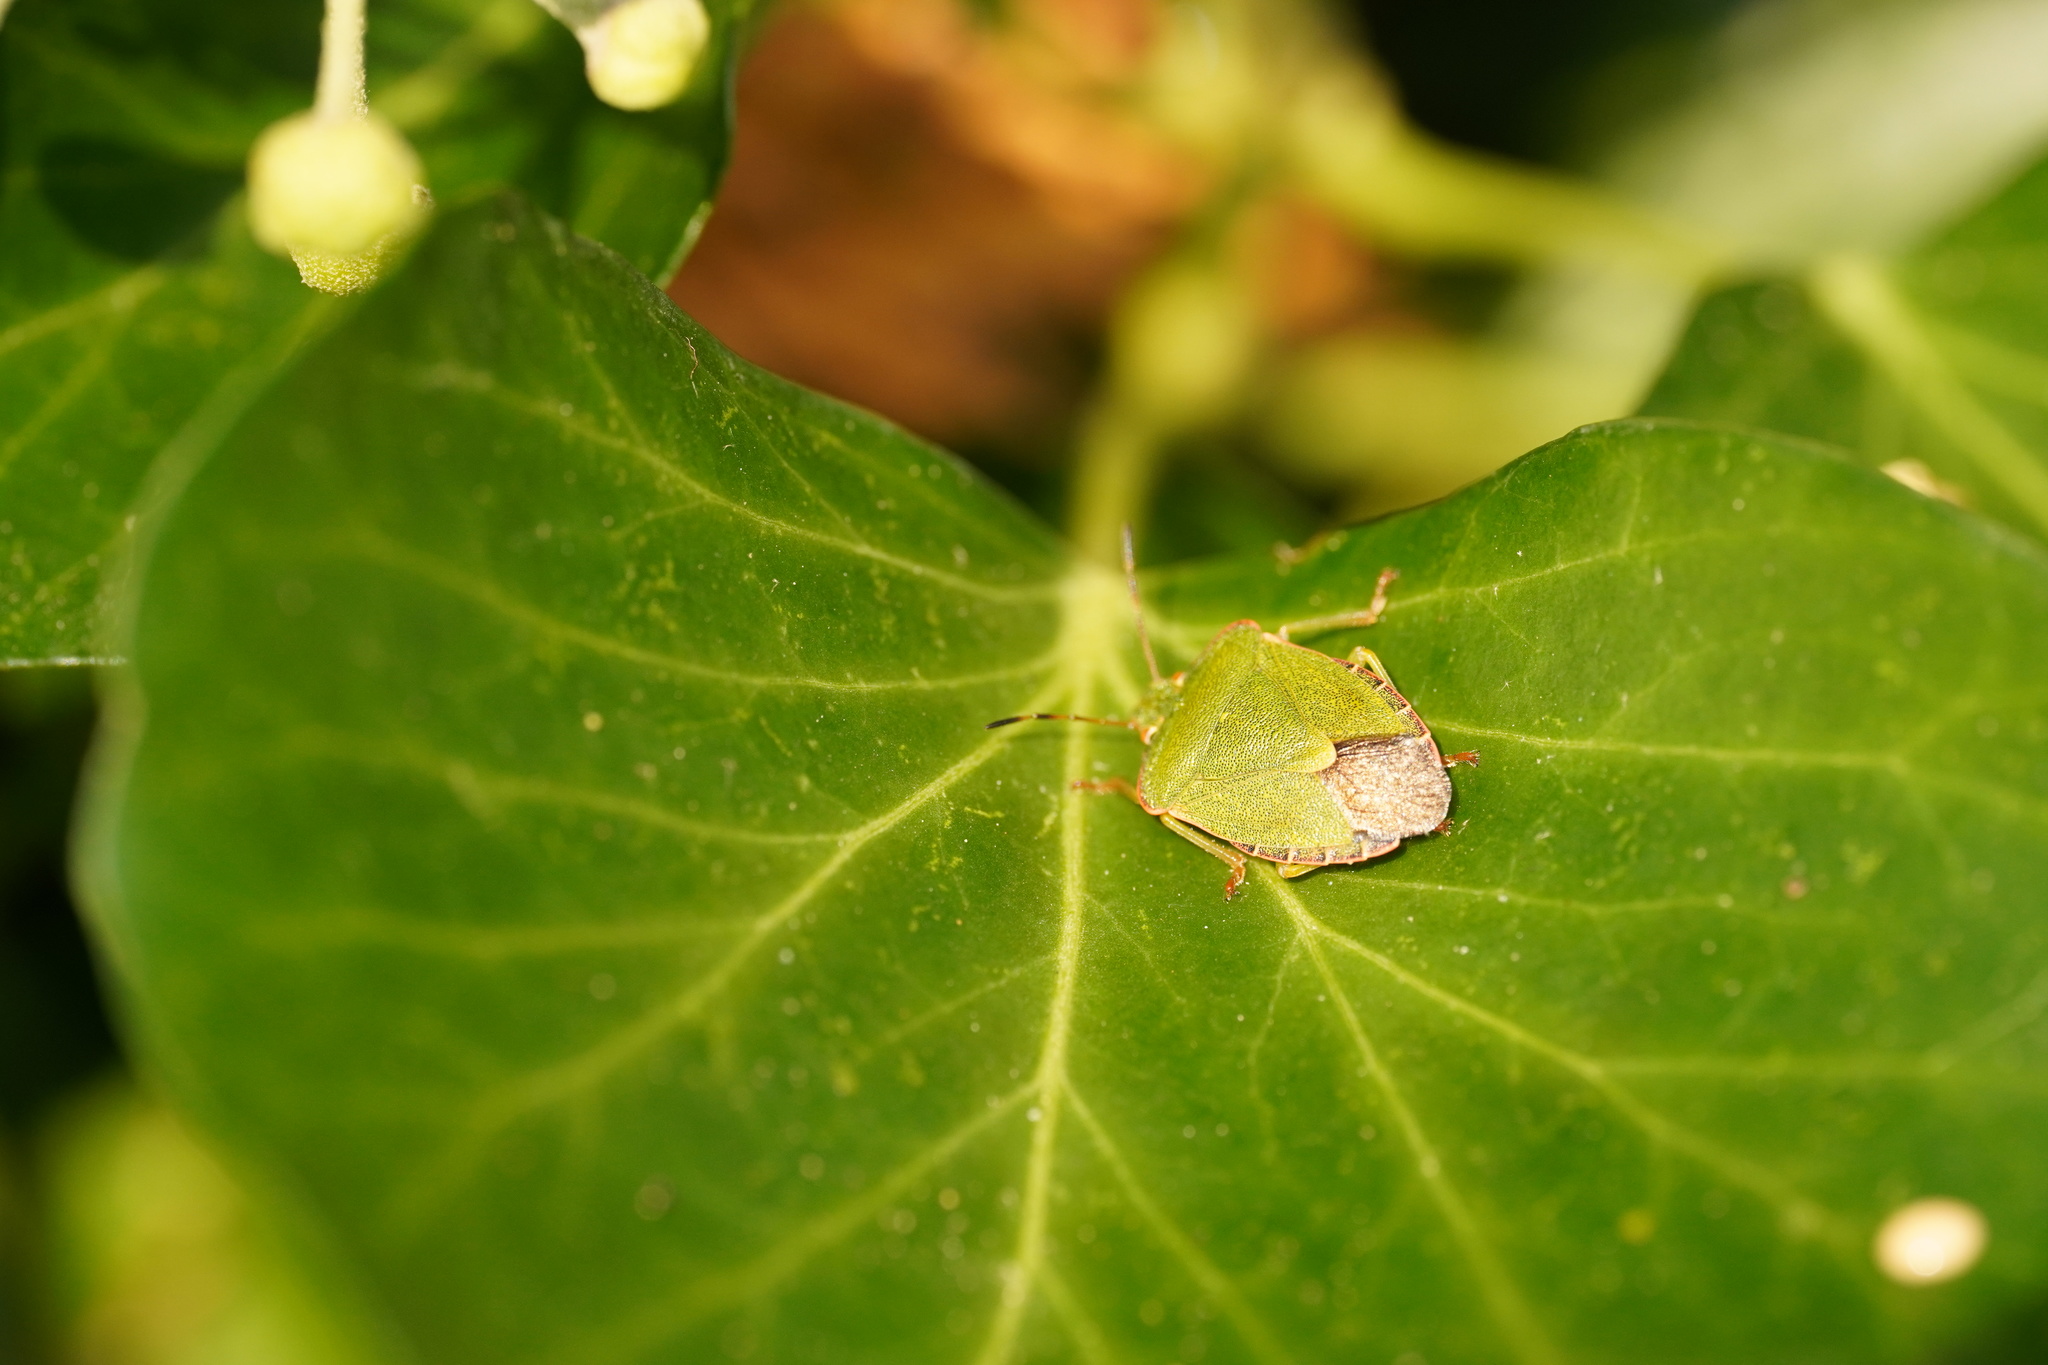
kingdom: Animalia
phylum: Arthropoda
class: Insecta
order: Hemiptera
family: Pentatomidae
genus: Palomena
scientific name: Palomena prasina
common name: Green shieldbug
